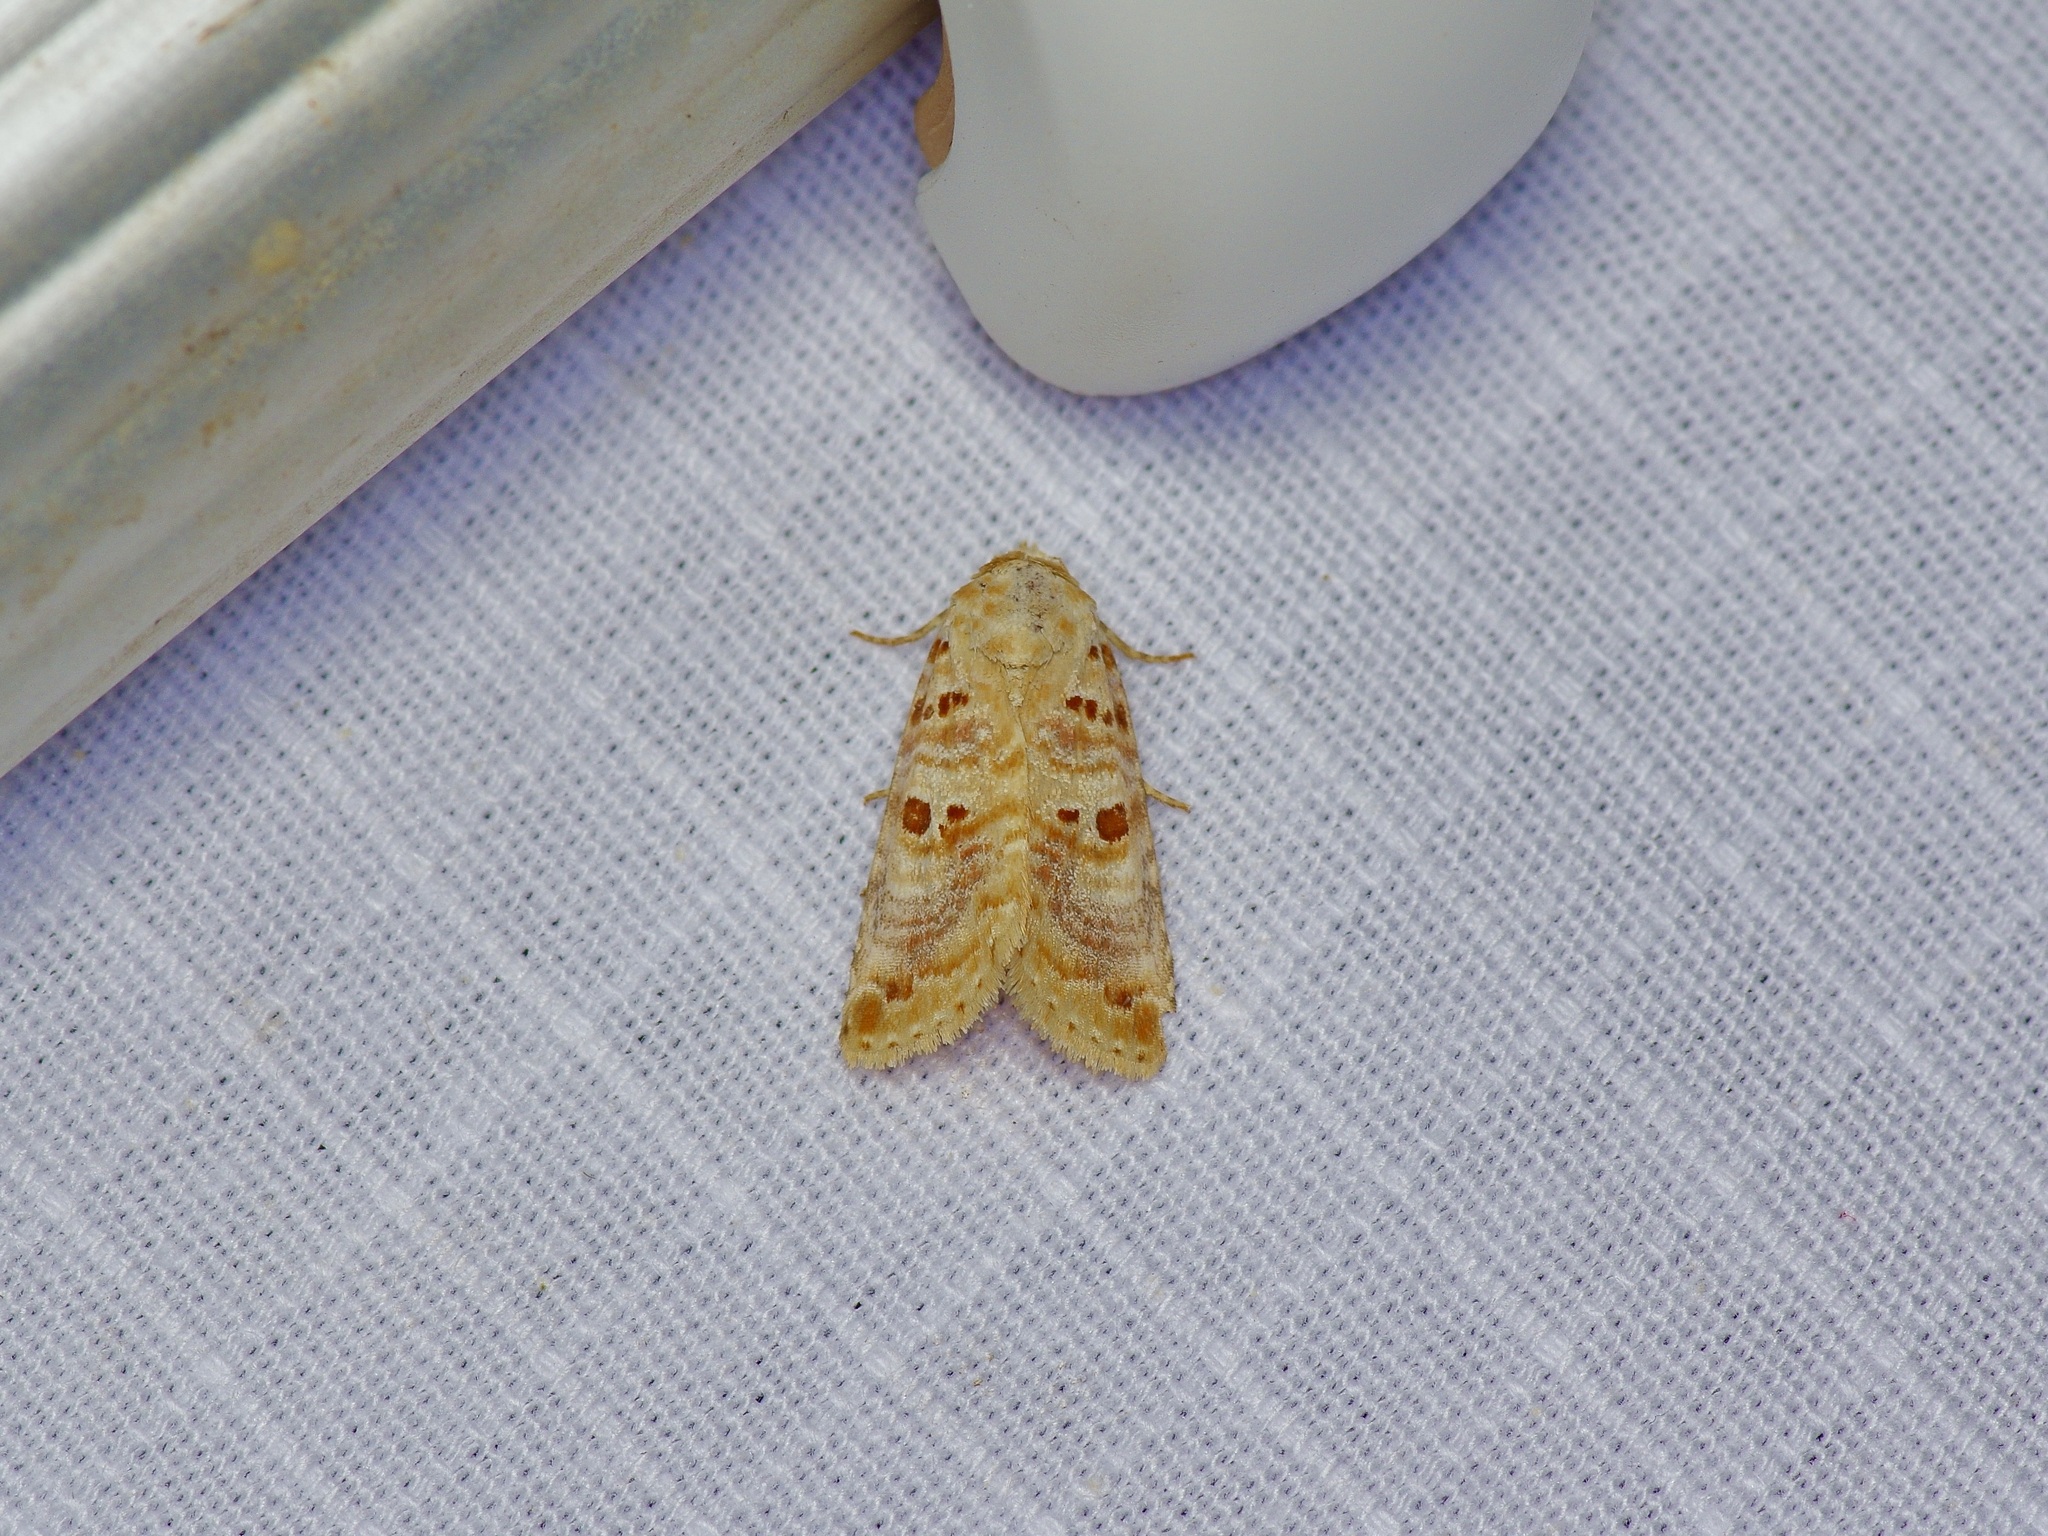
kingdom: Animalia
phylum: Arthropoda
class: Insecta
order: Lepidoptera
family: Noctuidae
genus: Diastema
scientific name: Diastema tigris
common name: Lantana moth
